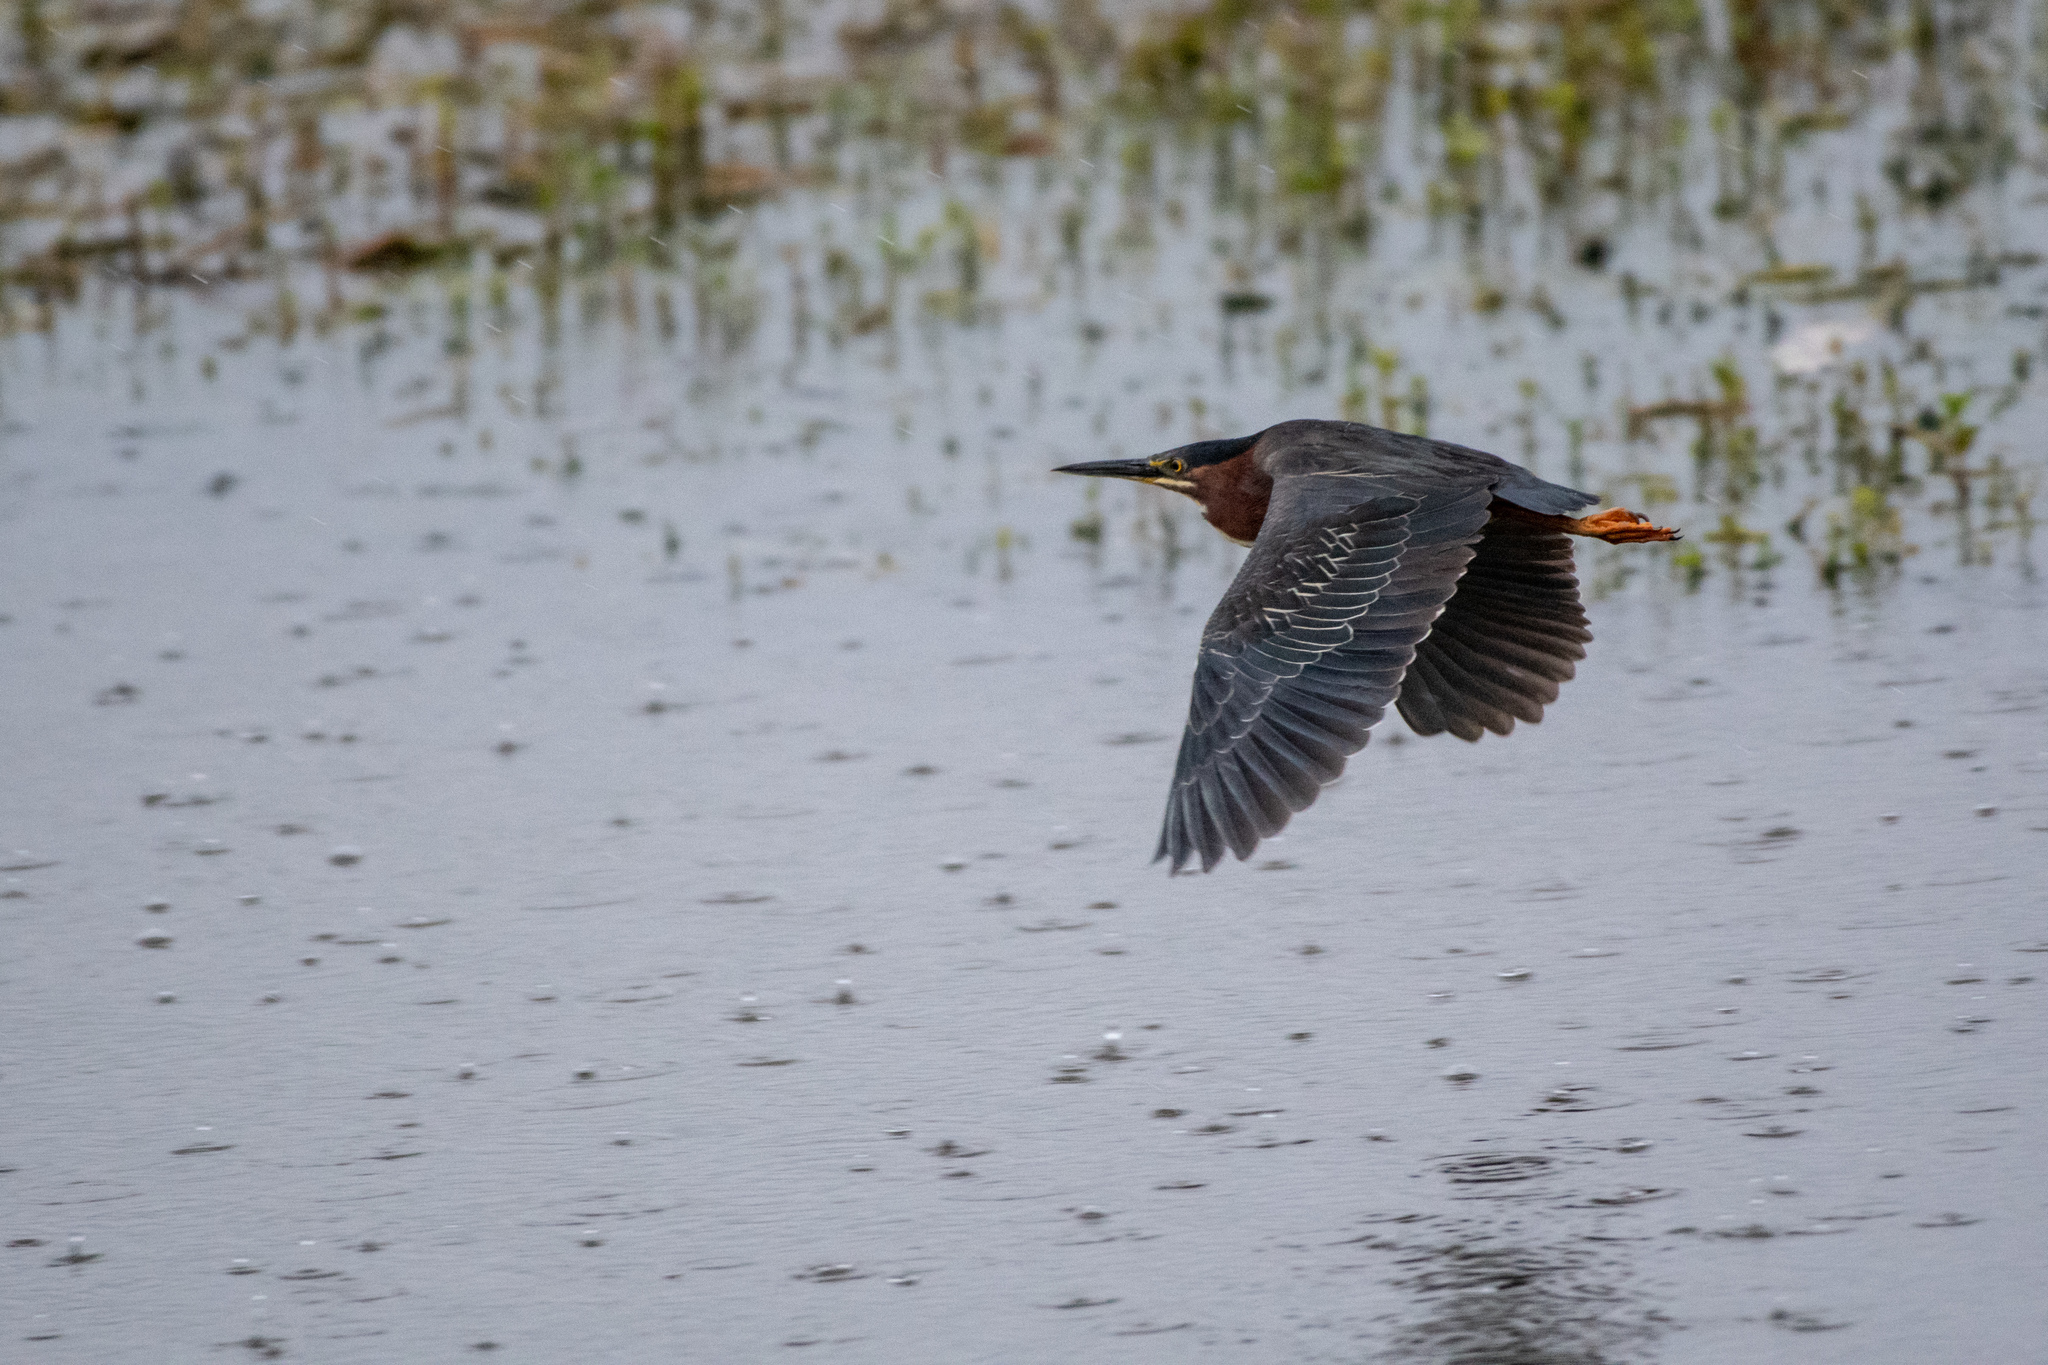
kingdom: Animalia
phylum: Chordata
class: Aves
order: Pelecaniformes
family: Ardeidae
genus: Butorides
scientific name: Butorides virescens
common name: Green heron
